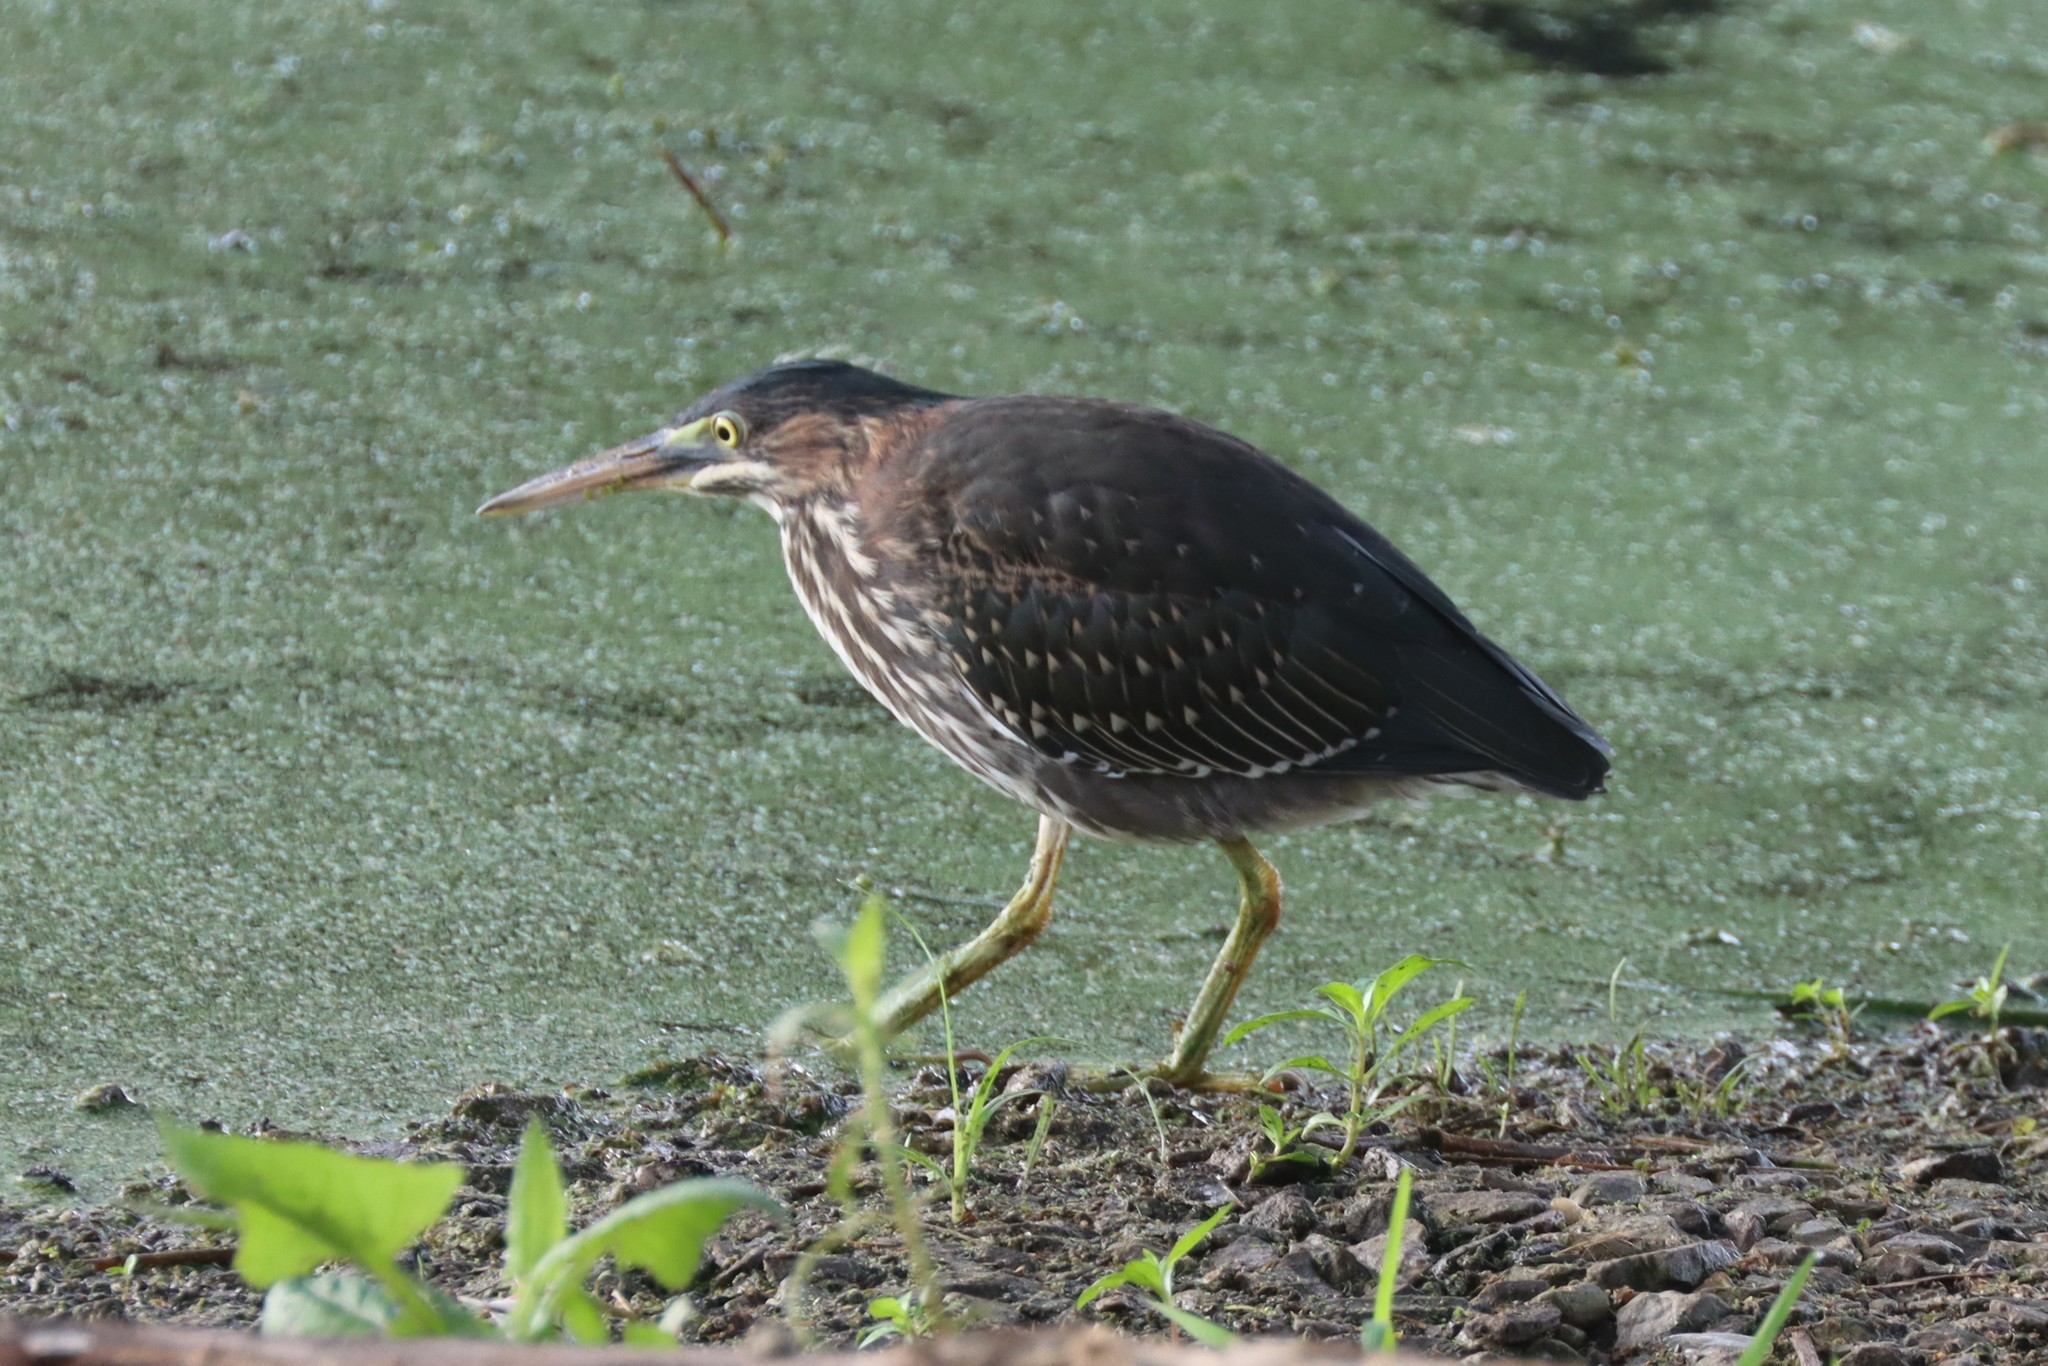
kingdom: Animalia
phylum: Chordata
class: Aves
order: Pelecaniformes
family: Ardeidae
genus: Butorides
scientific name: Butorides virescens
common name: Green heron
